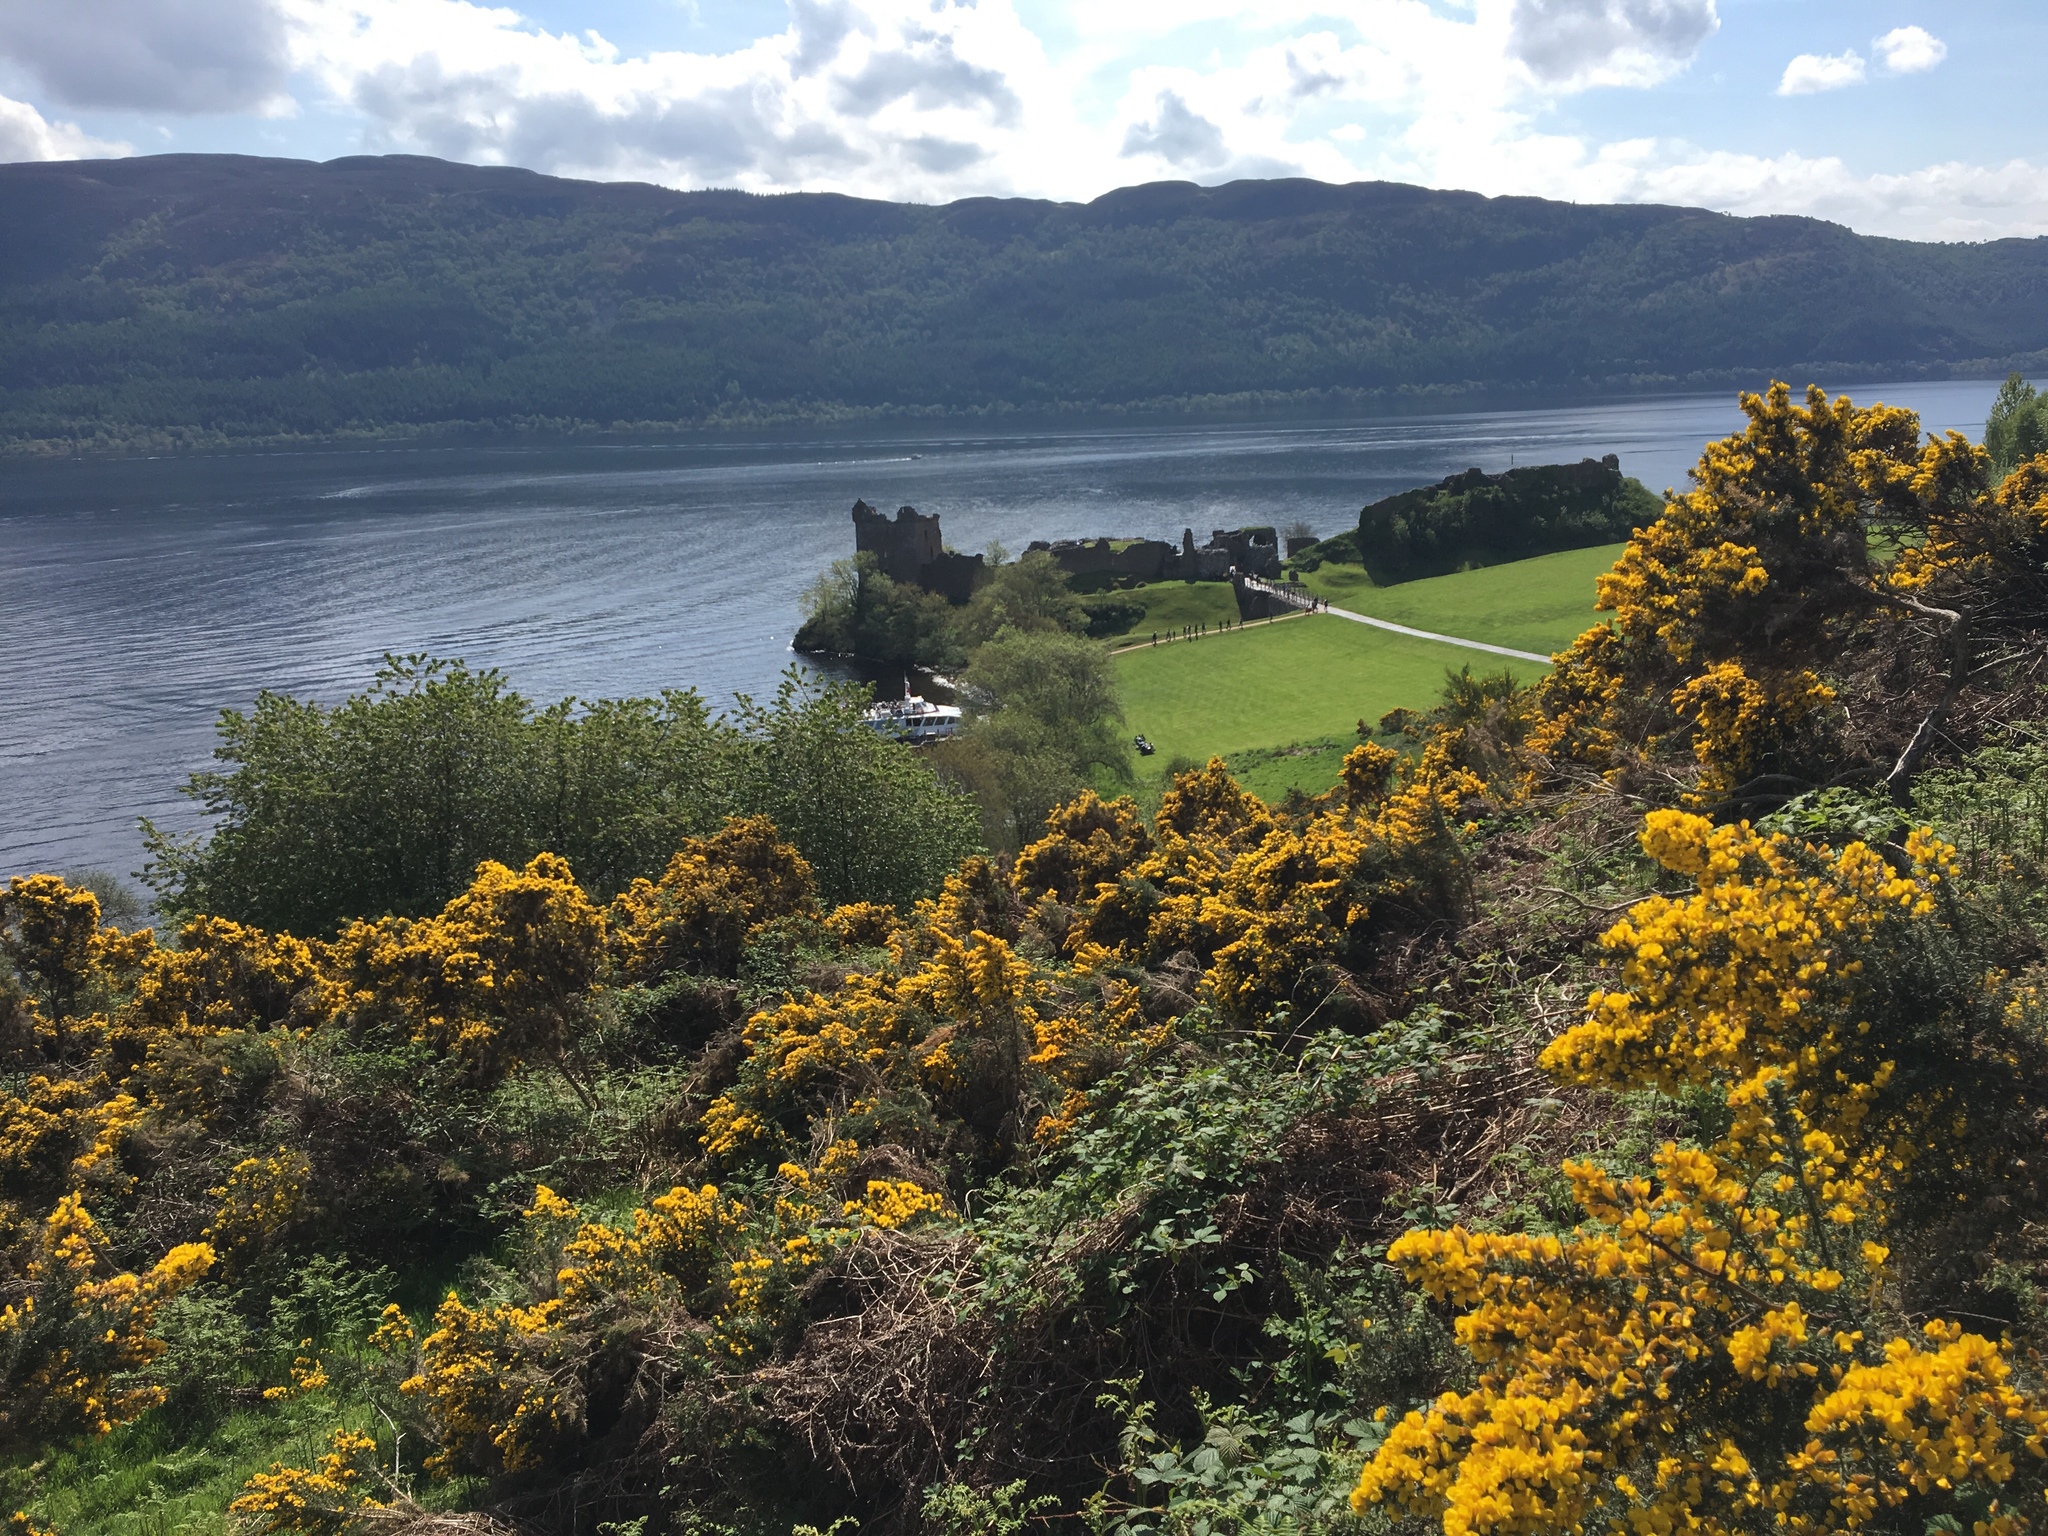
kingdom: Plantae
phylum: Tracheophyta
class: Magnoliopsida
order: Fabales
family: Fabaceae
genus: Ulex
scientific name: Ulex europaeus
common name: Common gorse
